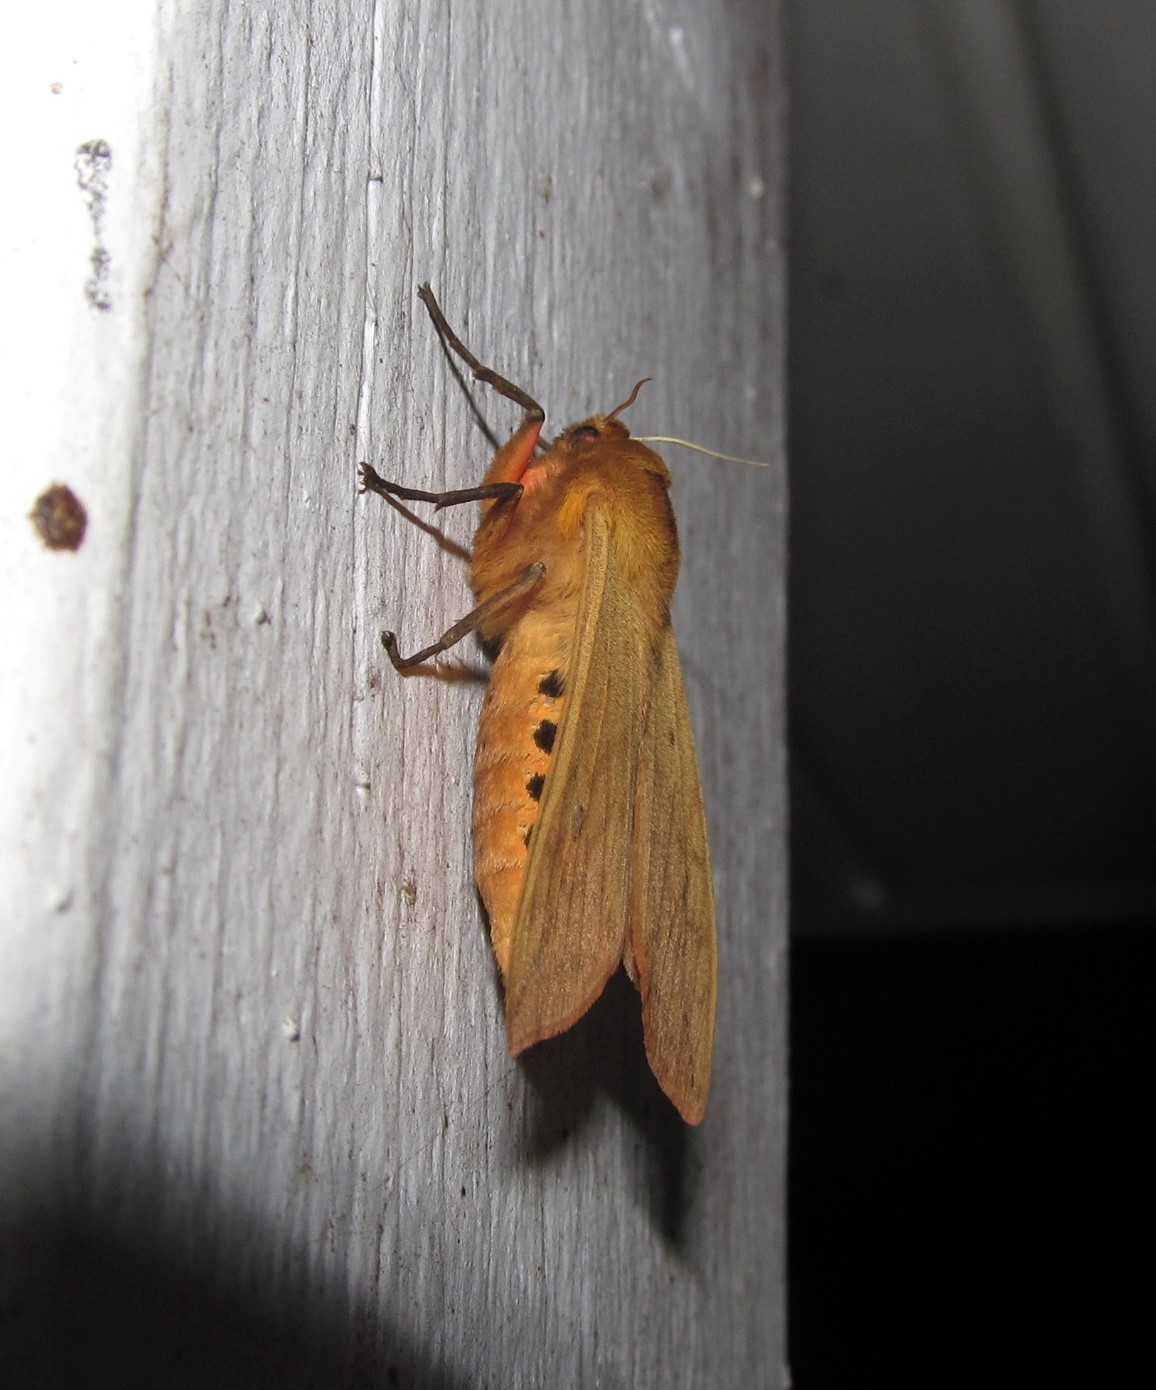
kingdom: Animalia
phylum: Arthropoda
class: Insecta
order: Lepidoptera
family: Erebidae
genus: Pyrrharctia
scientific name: Pyrrharctia isabella
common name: Isabella tiger moth
